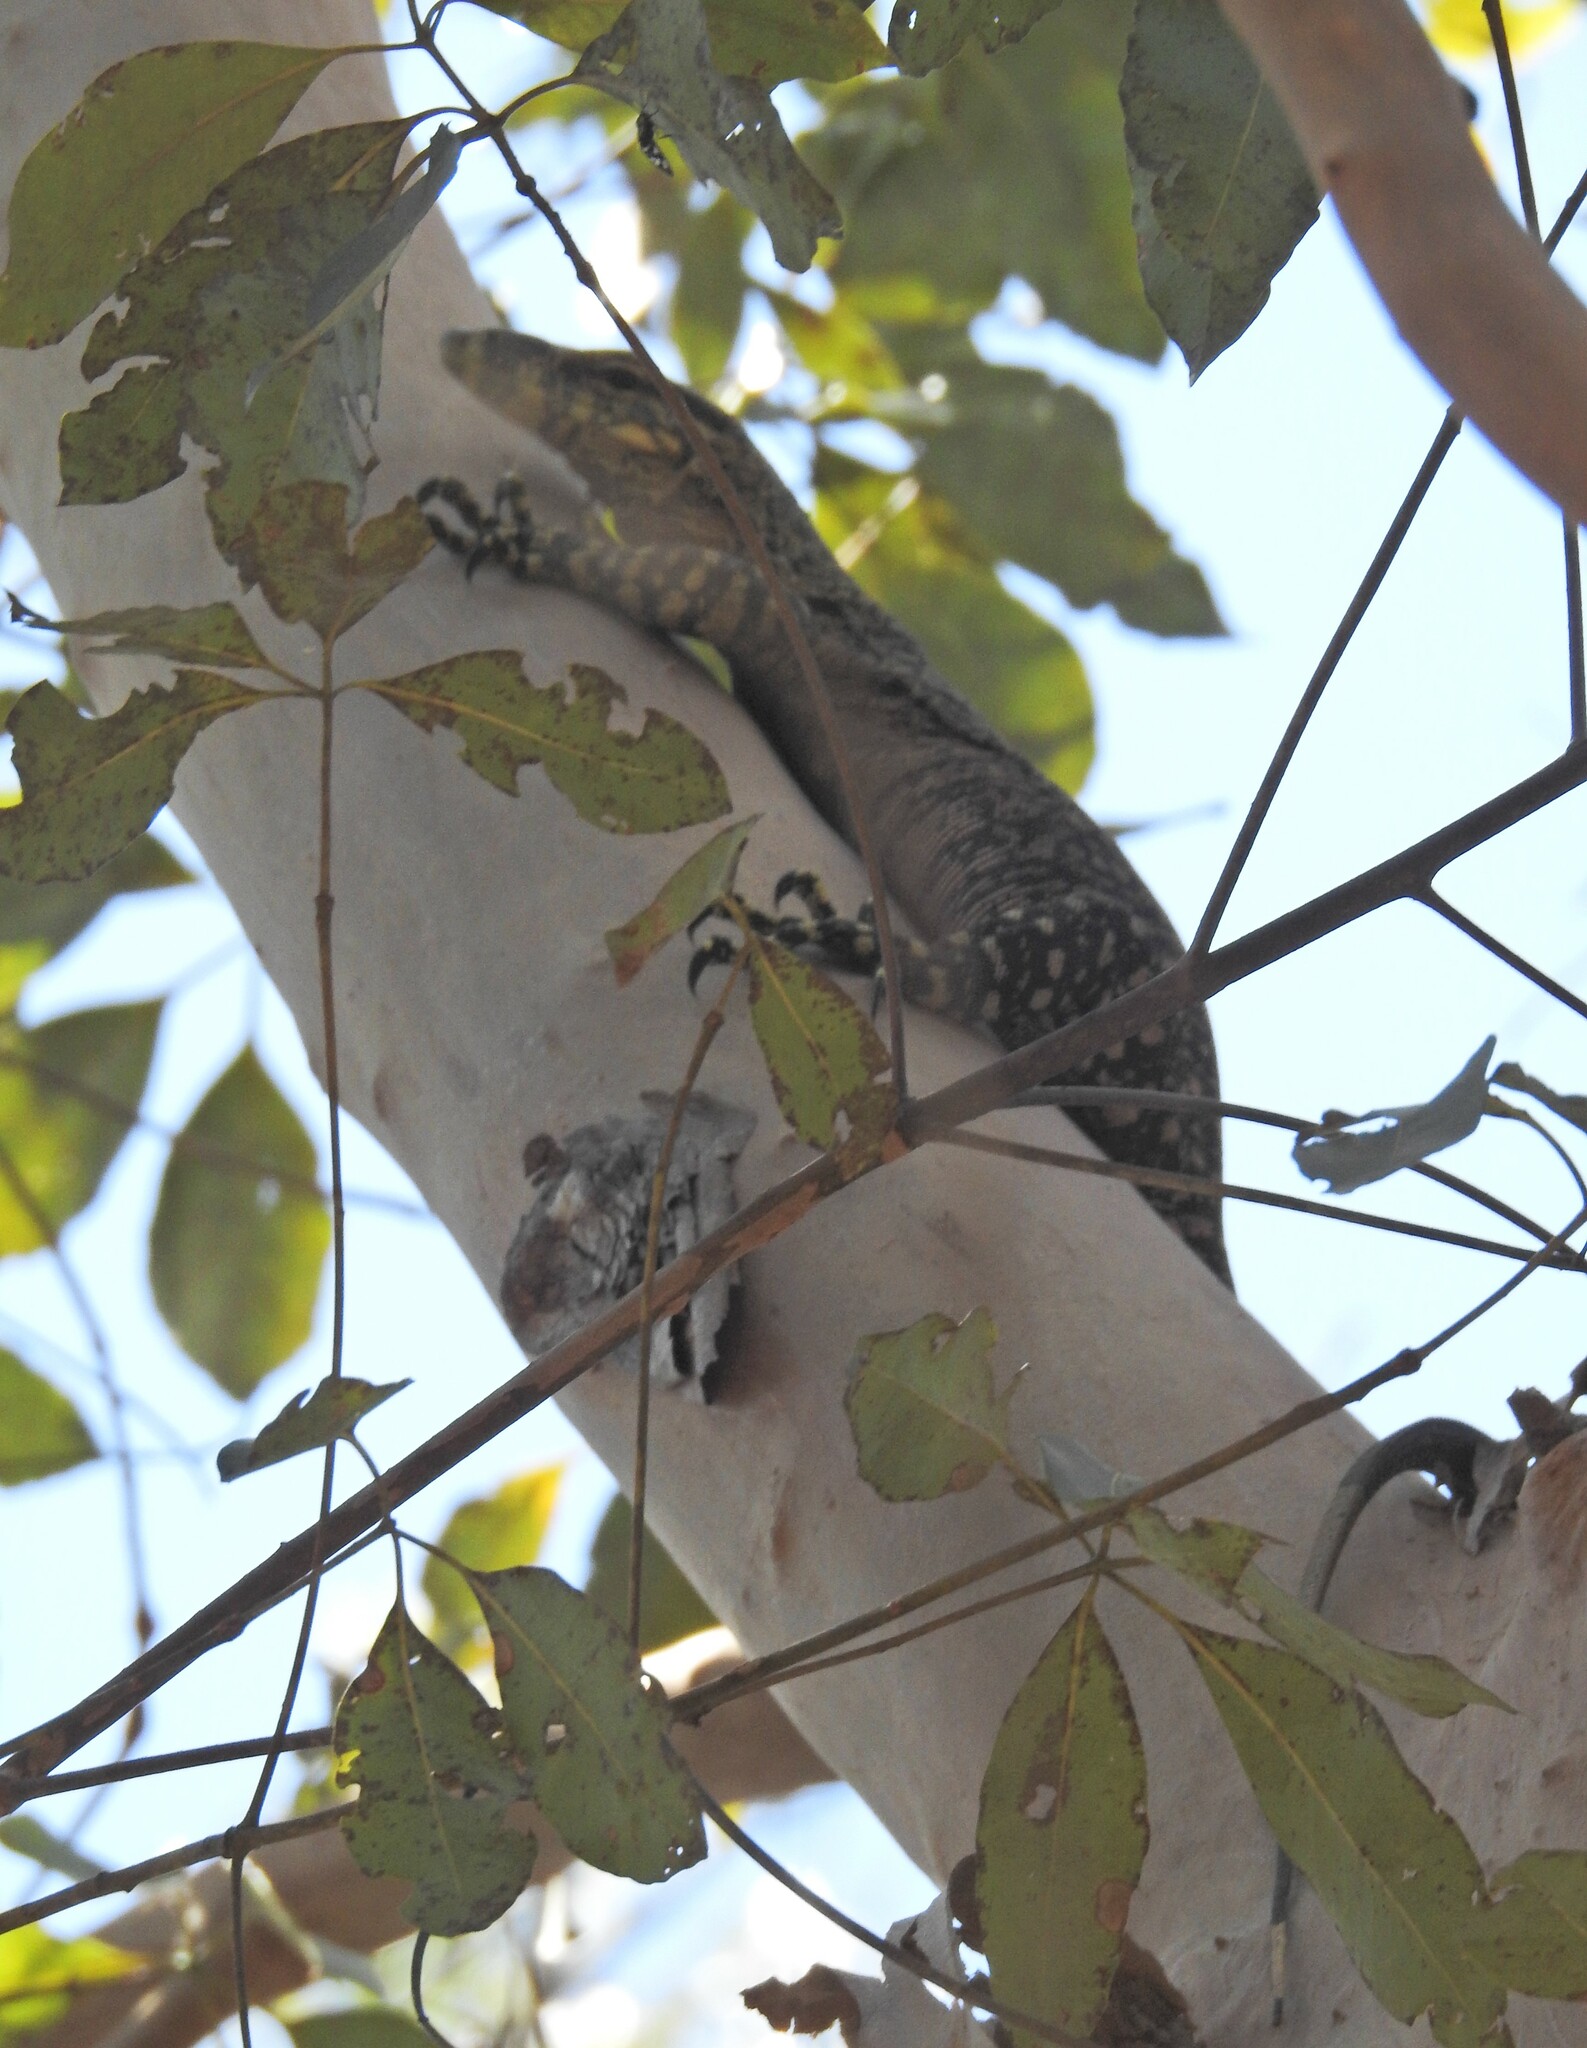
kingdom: Animalia
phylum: Chordata
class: Squamata
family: Varanidae
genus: Varanus
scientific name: Varanus varius
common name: Lace monitor
